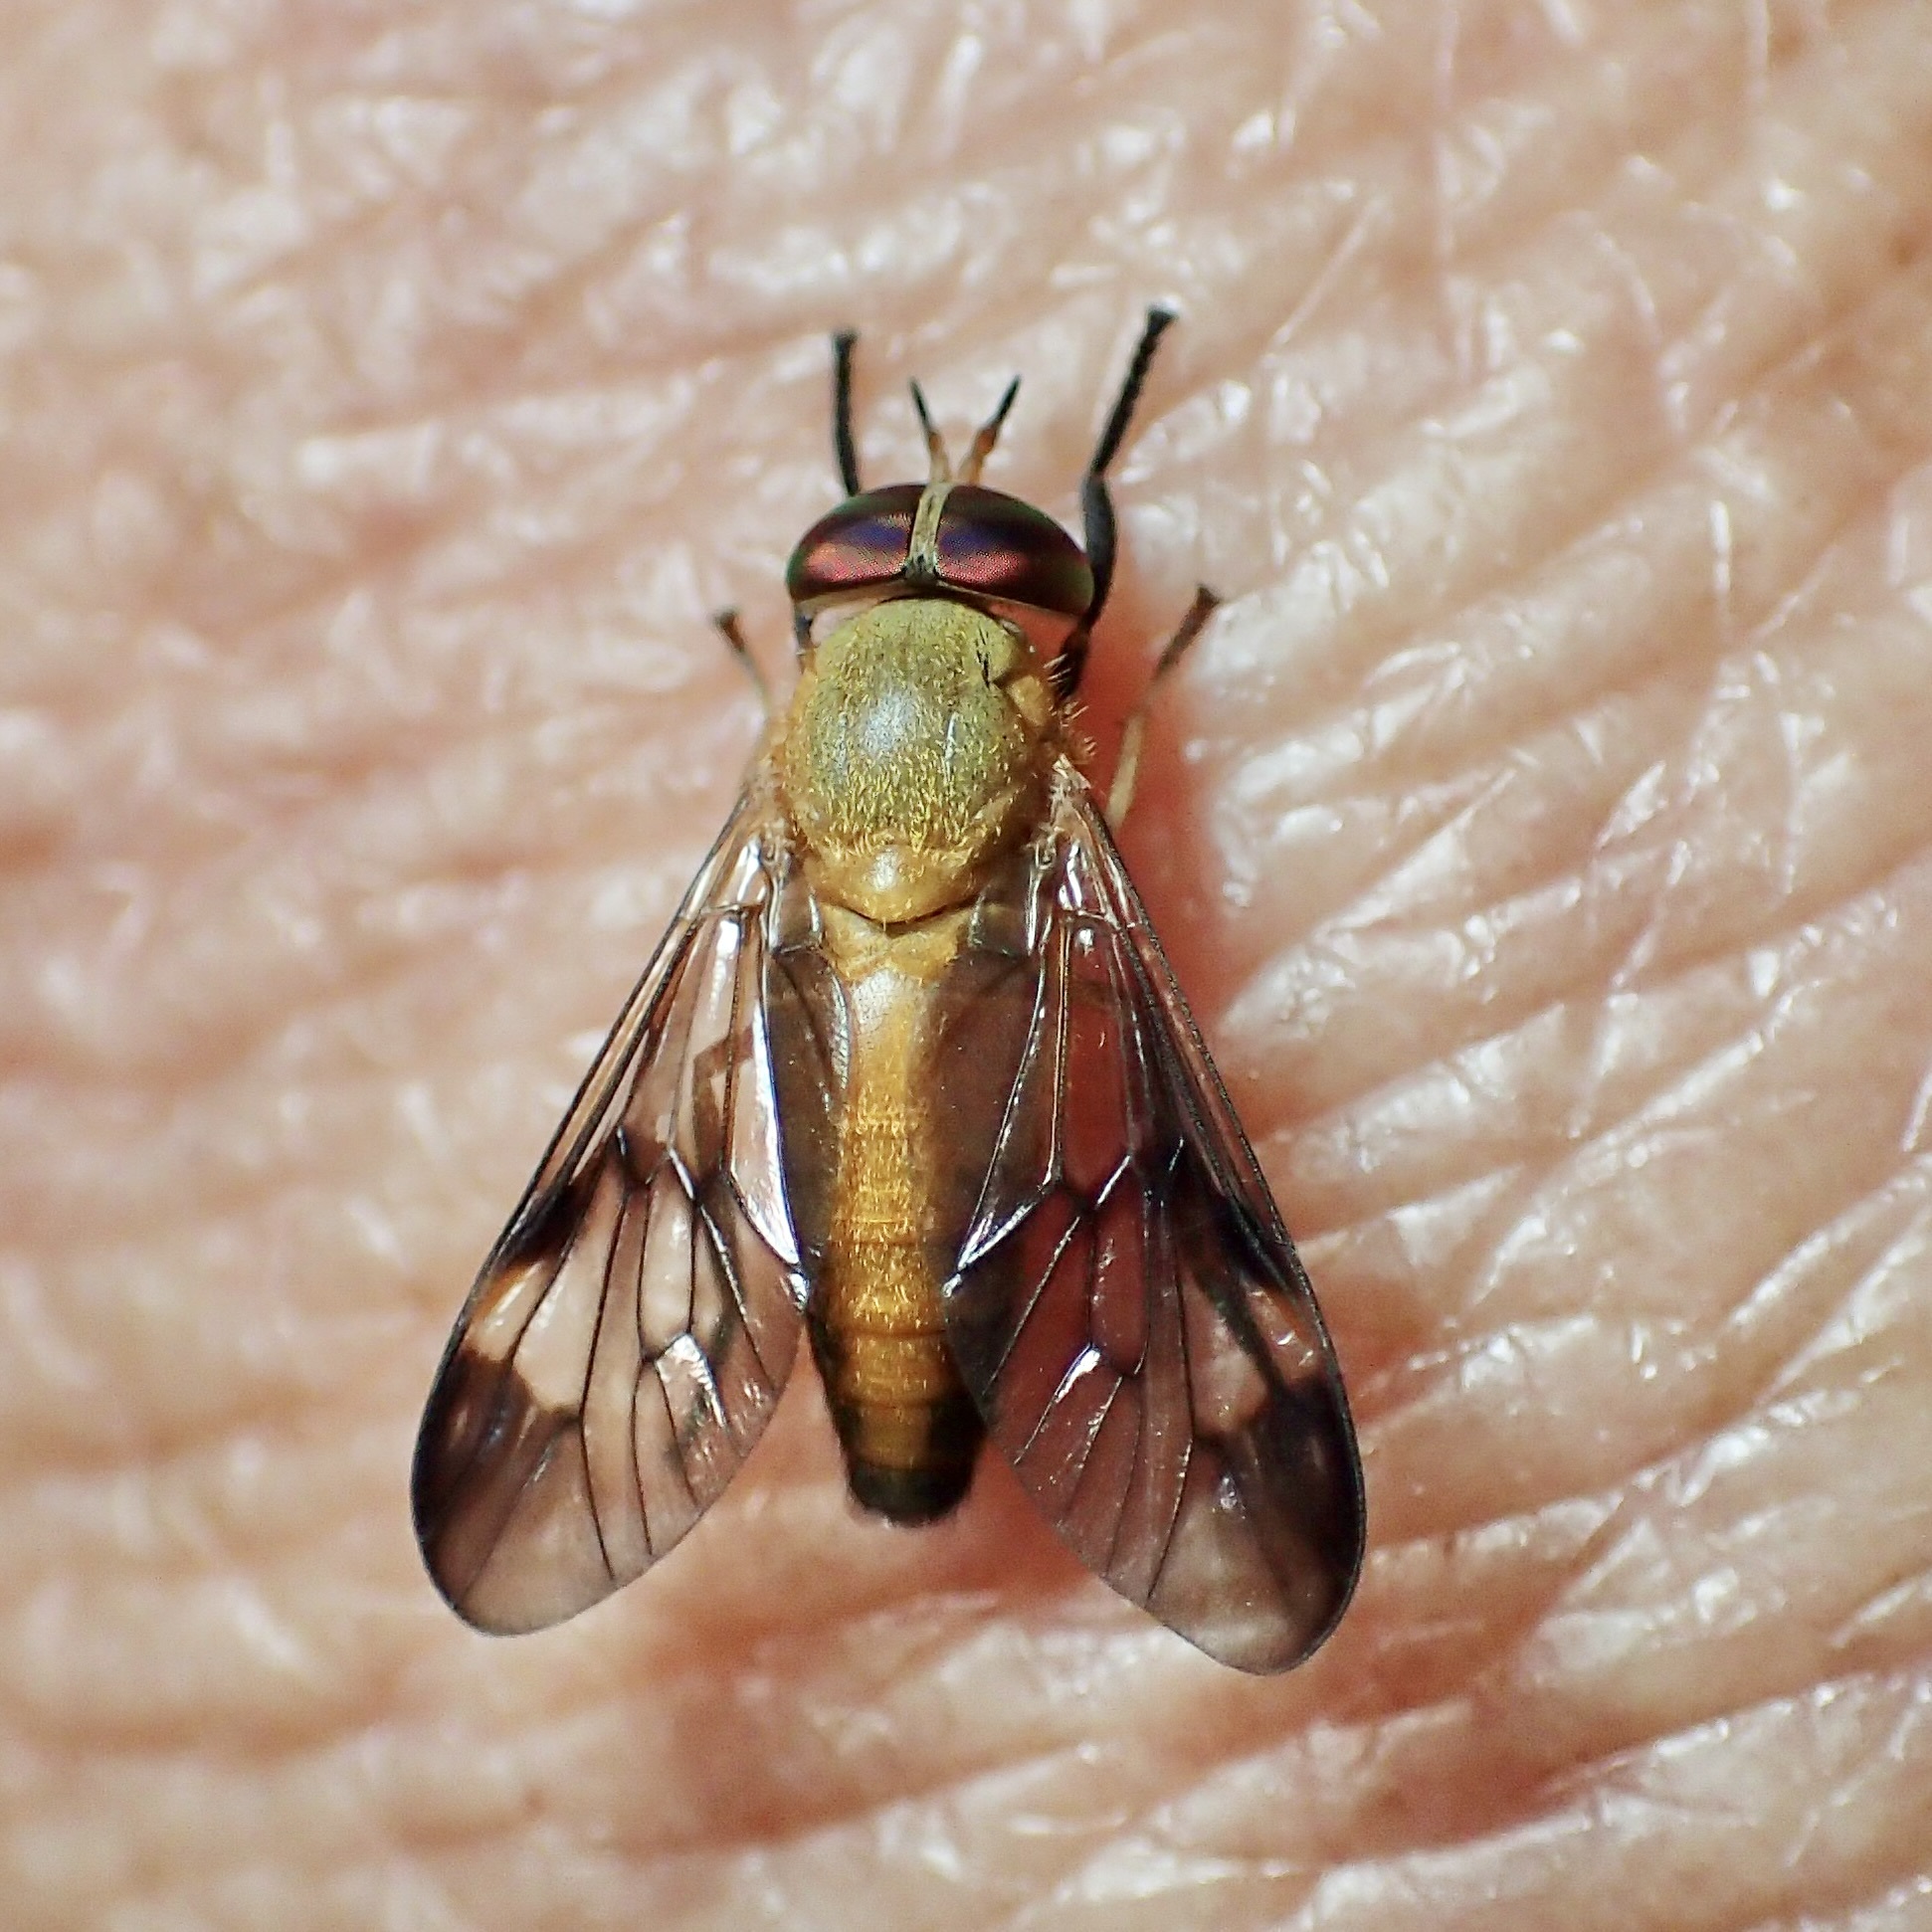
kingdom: Animalia
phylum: Arthropoda
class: Insecta
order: Diptera
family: Tabanidae
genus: Diachlorus
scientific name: Diachlorus ferrugatus
